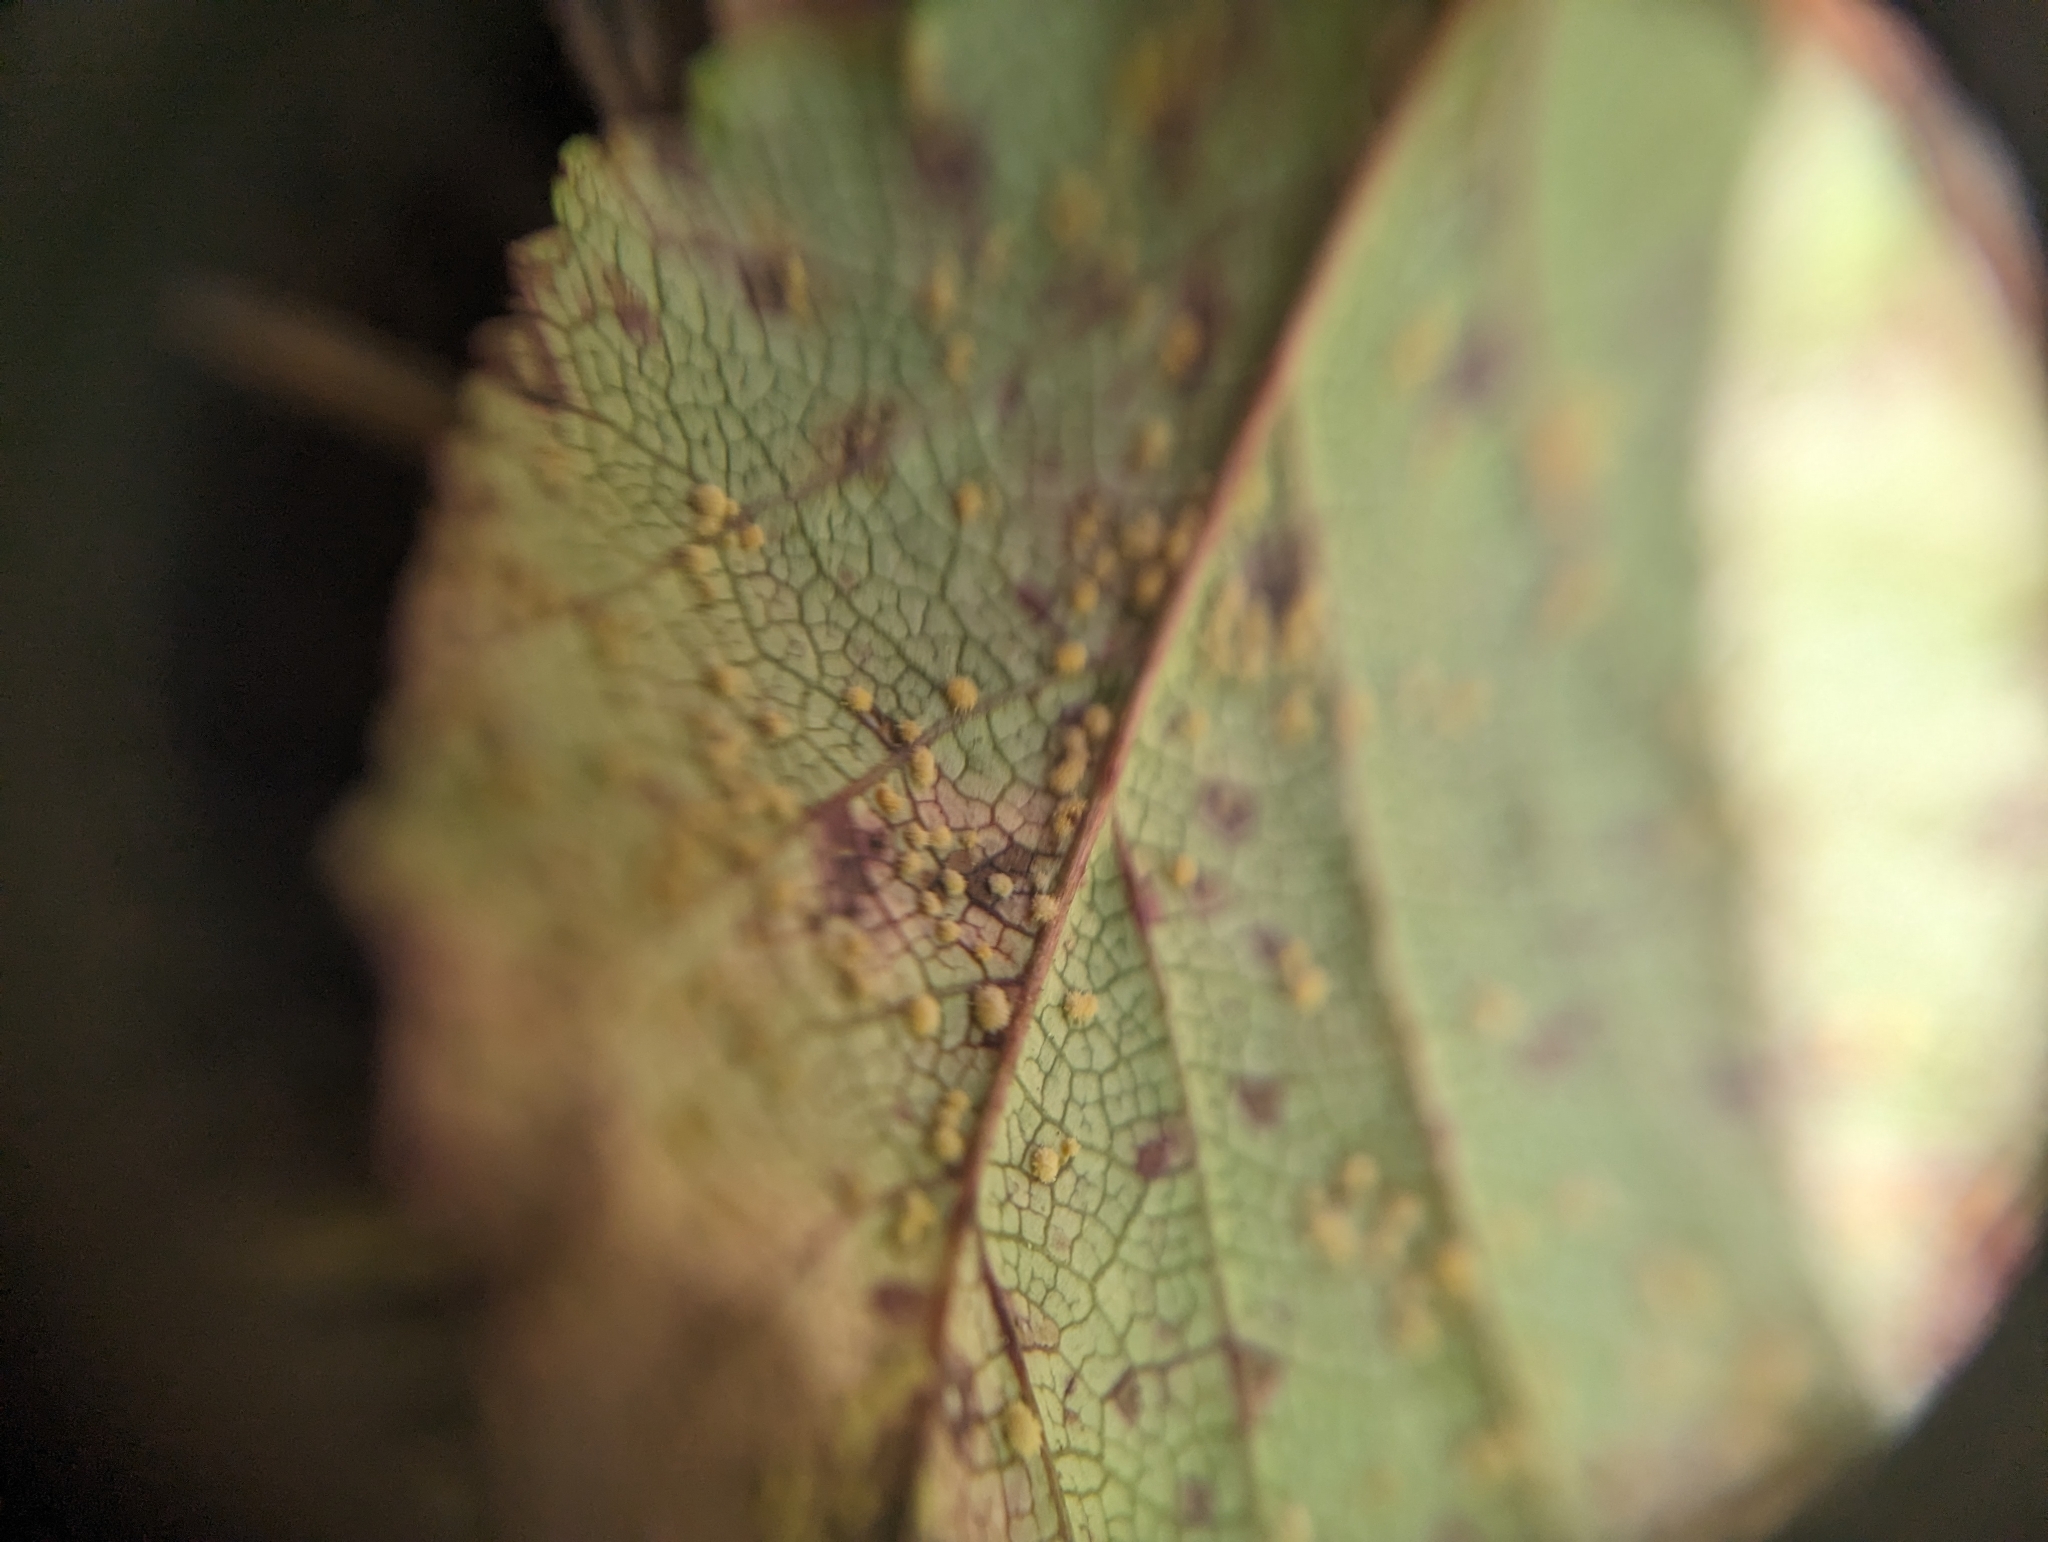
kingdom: Fungi
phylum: Basidiomycota
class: Pucciniomycetes
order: Pucciniales
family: Phragmidiaceae
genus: Phragmidium
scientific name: Phragmidium violaceum
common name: Violet bramble rust
